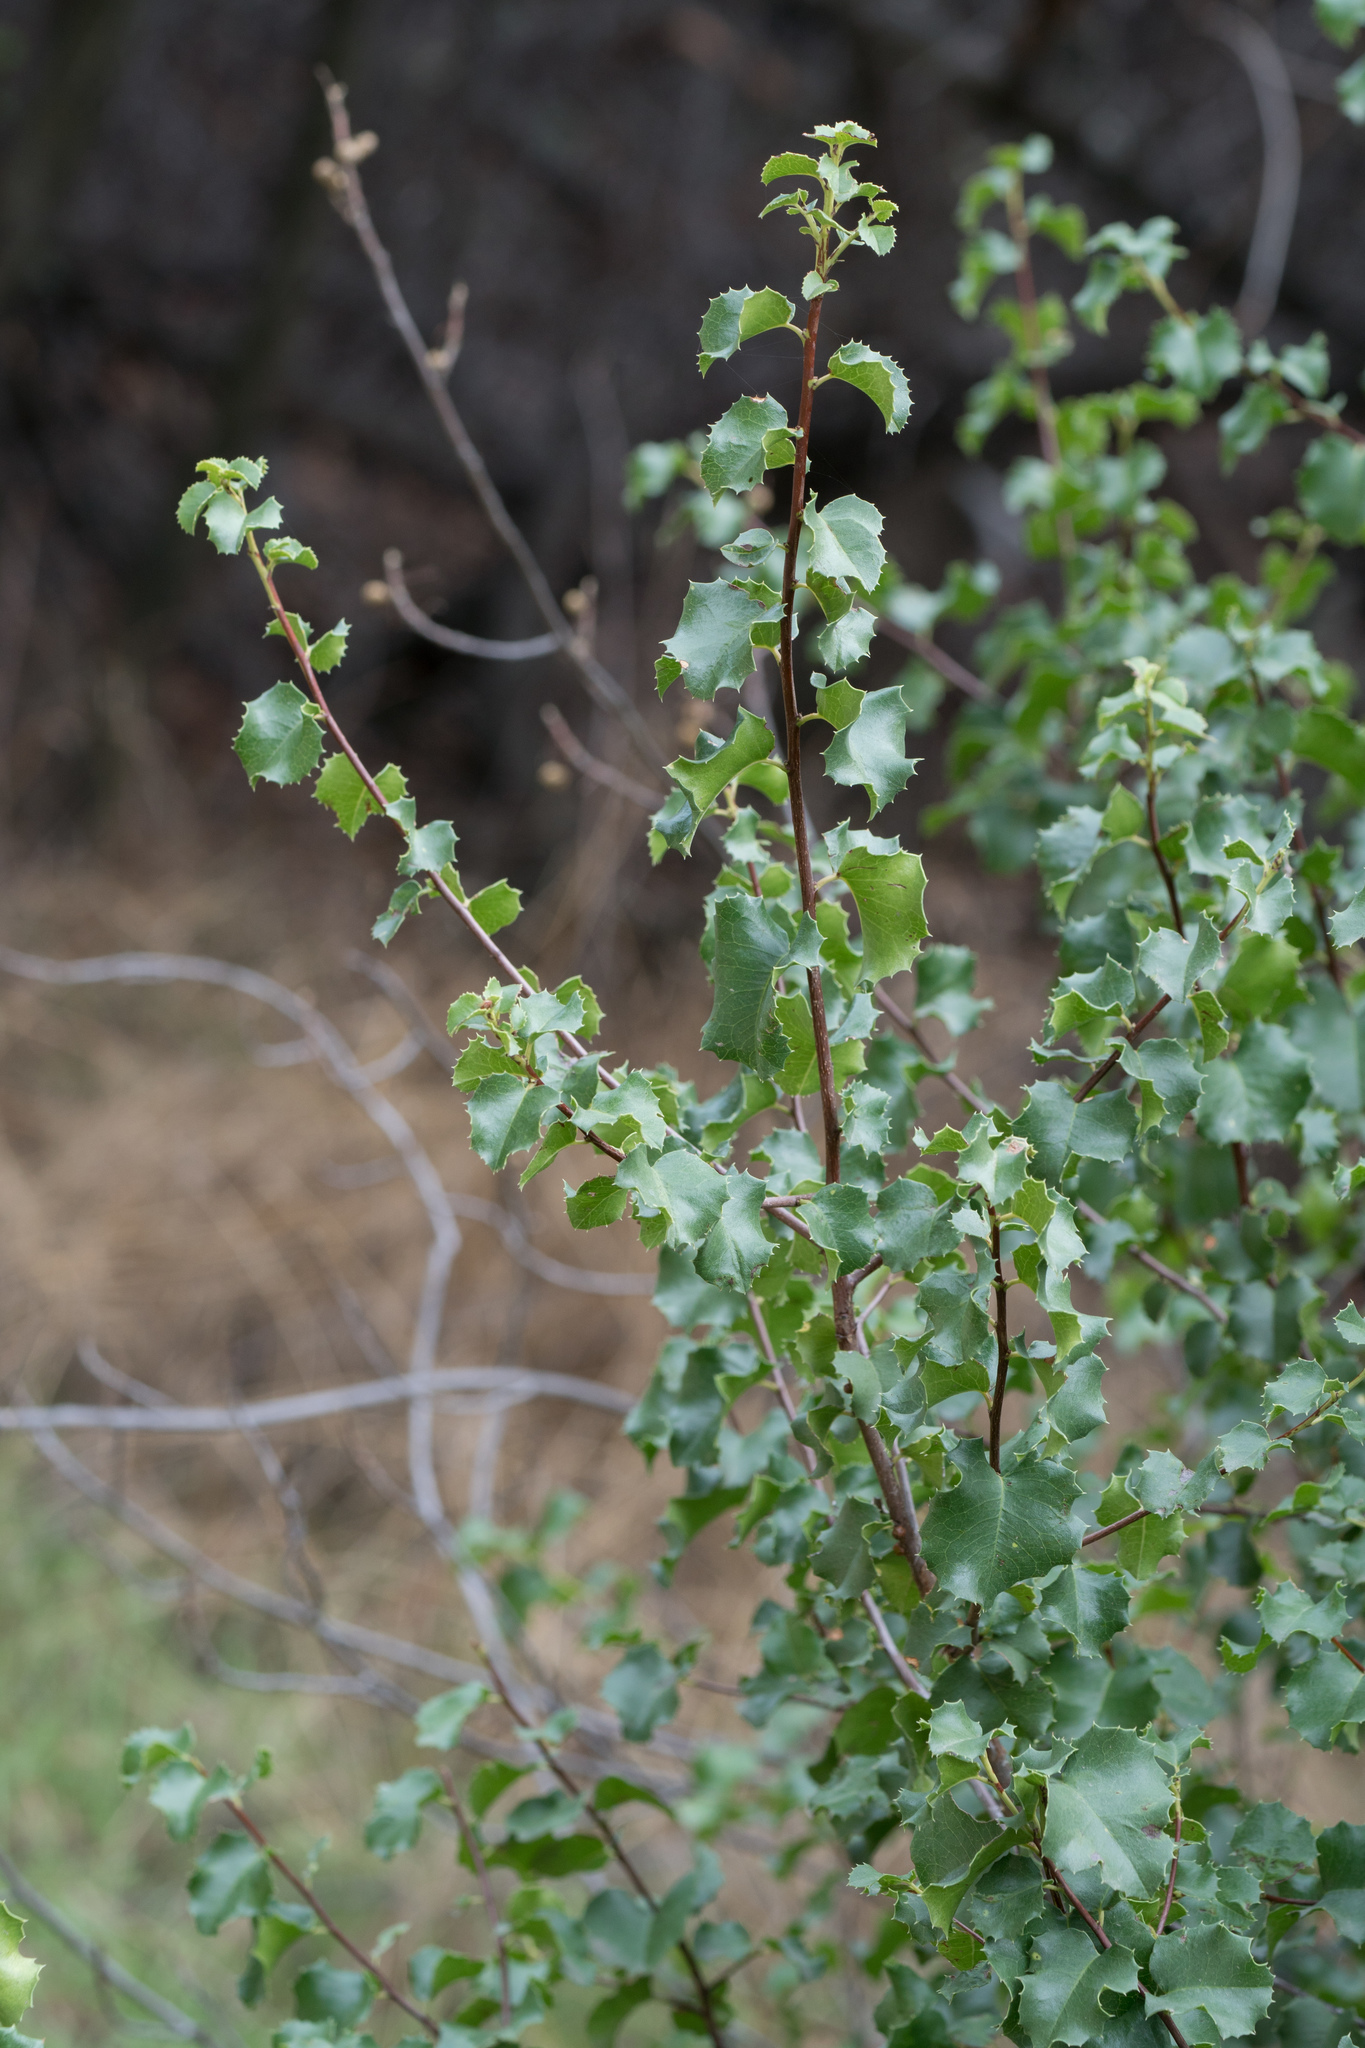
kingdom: Plantae
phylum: Tracheophyta
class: Magnoliopsida
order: Rosales
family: Rosaceae
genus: Prunus
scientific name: Prunus ilicifolia
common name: Hollyleaf cherry
